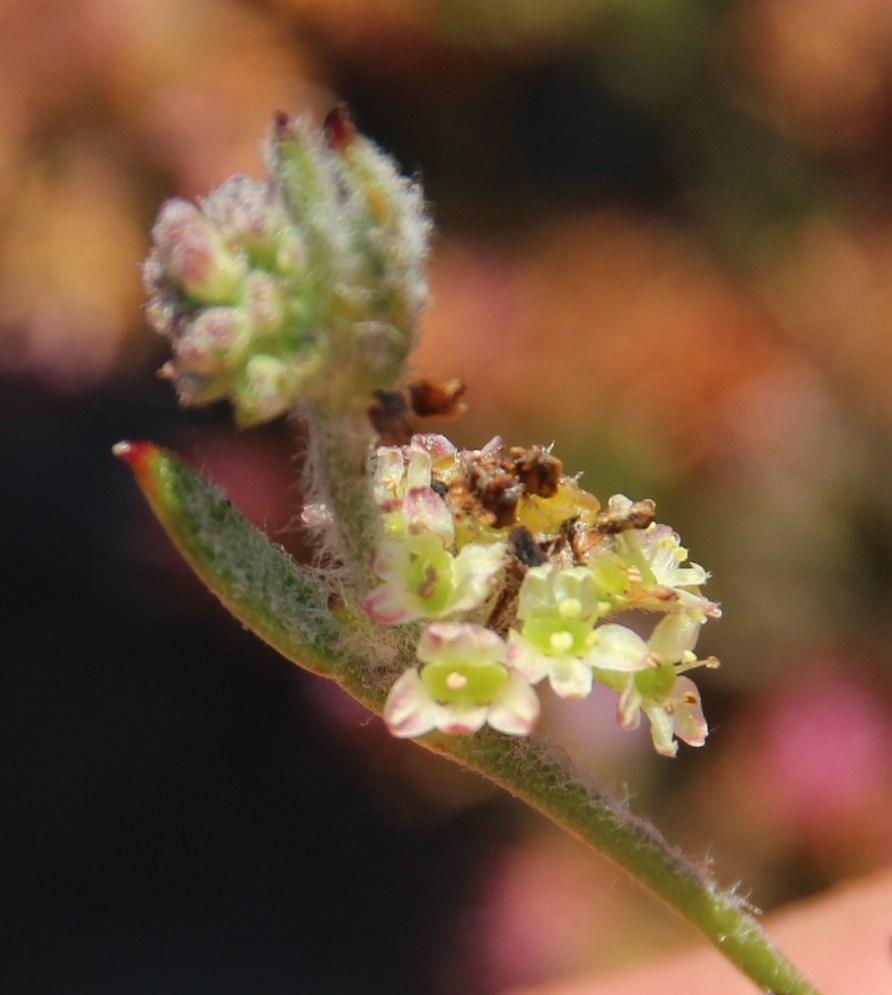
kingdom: Plantae
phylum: Tracheophyta
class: Magnoliopsida
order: Apiales
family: Apiaceae
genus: Centella
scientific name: Centella difformis
